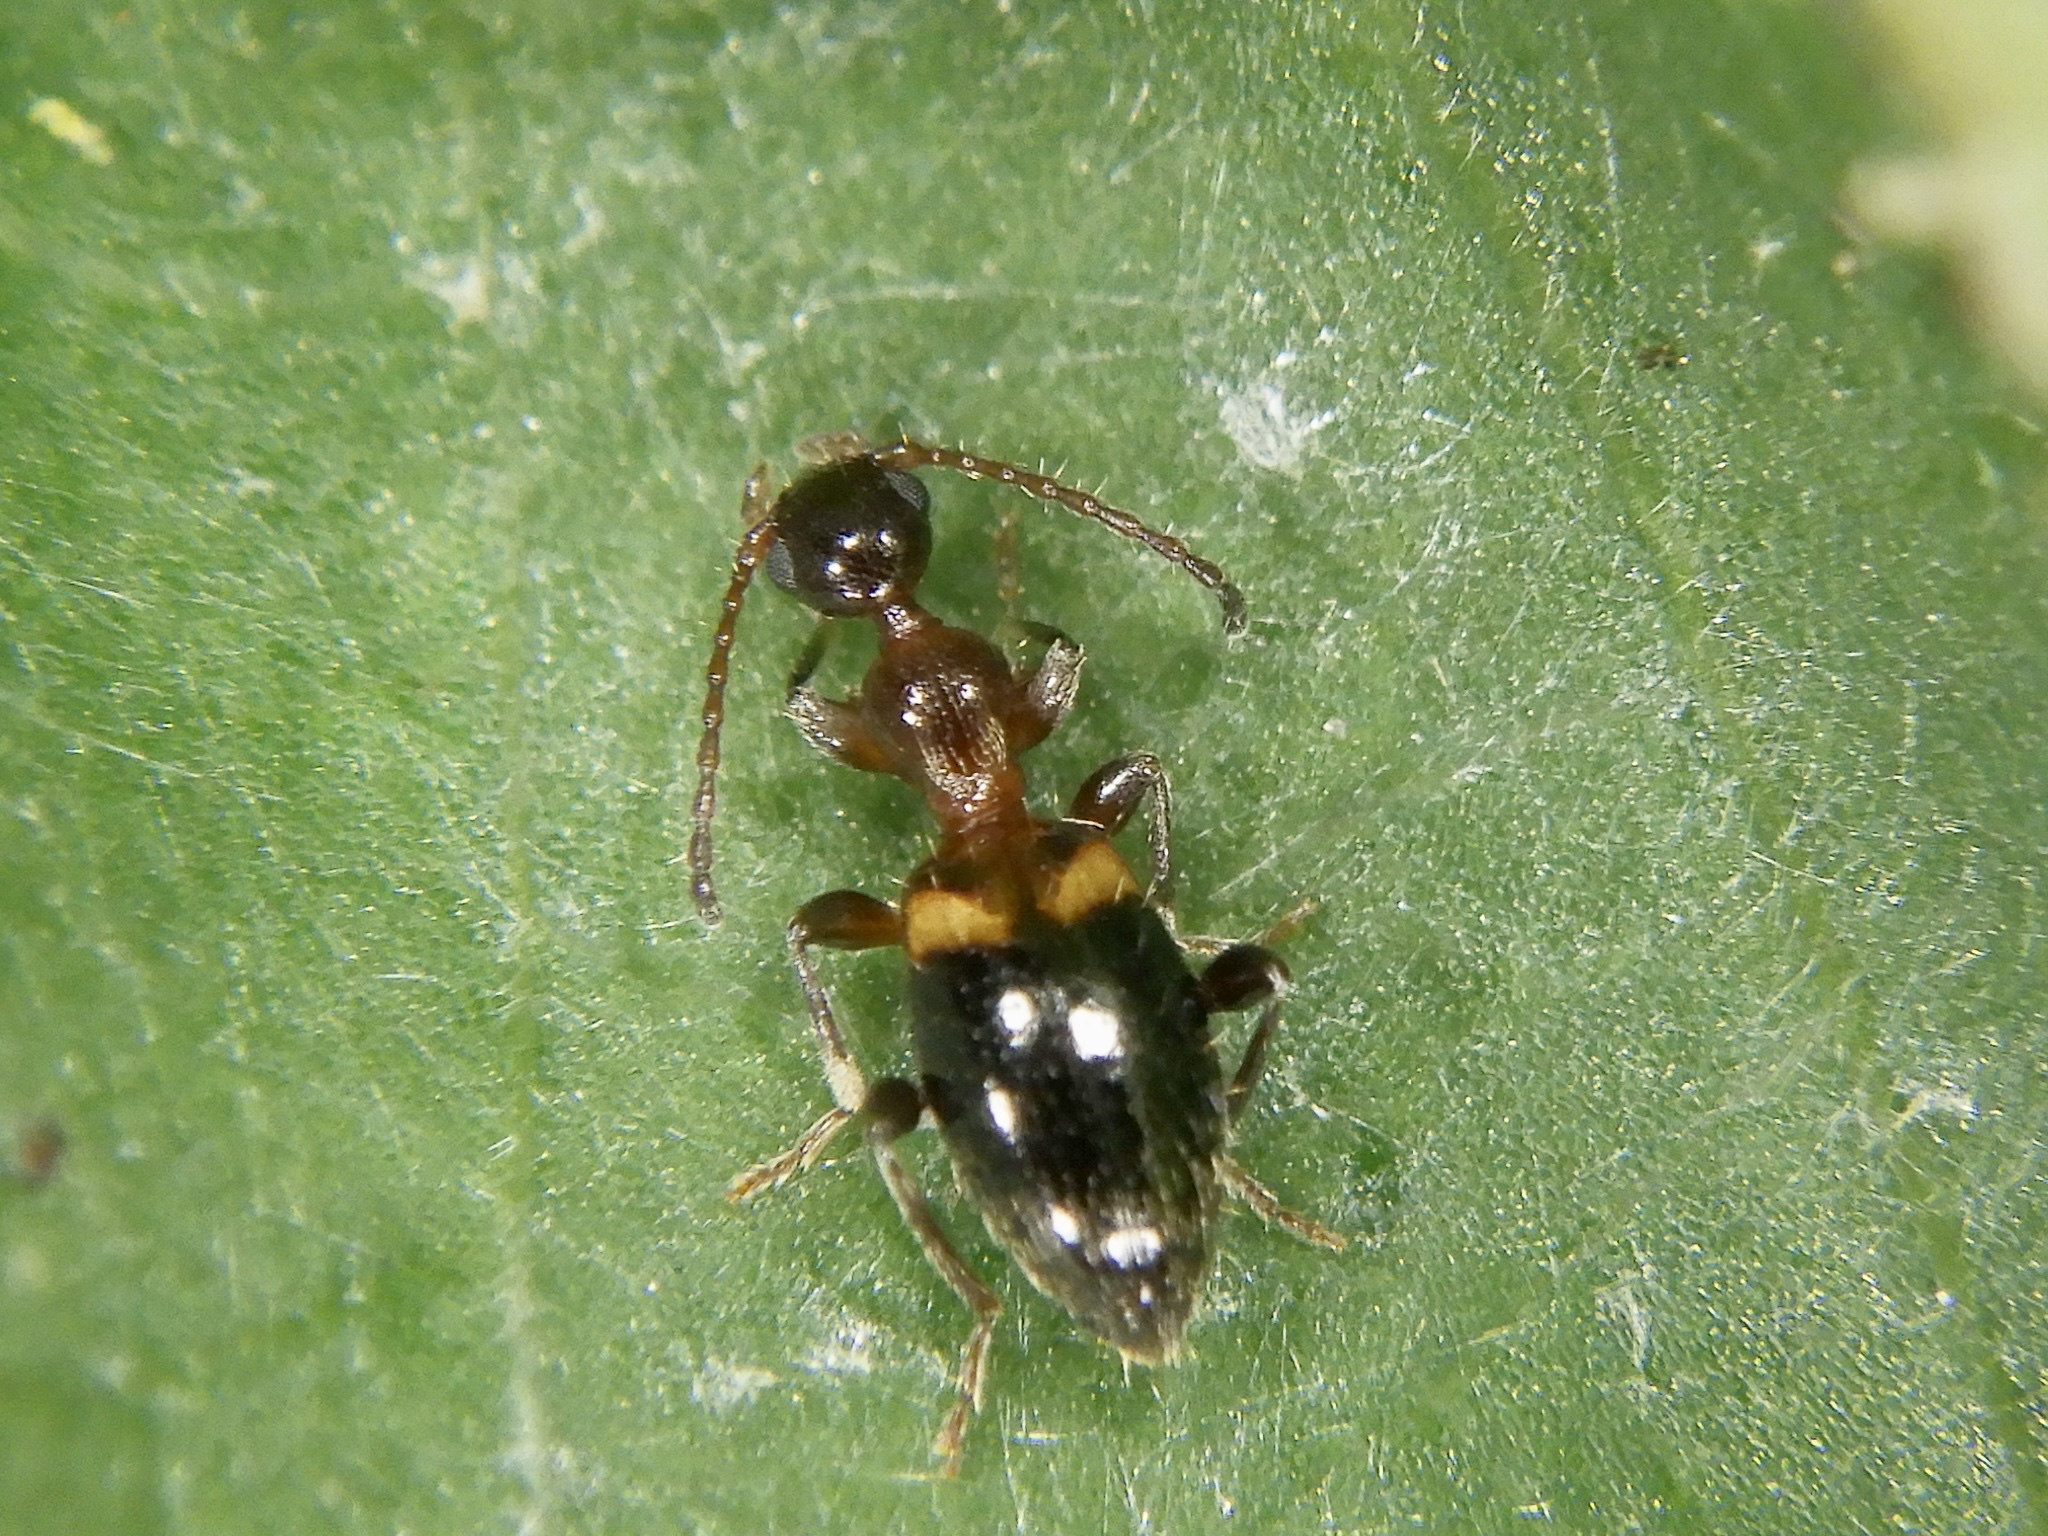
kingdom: Animalia
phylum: Arthropoda
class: Insecta
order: Coleoptera
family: Anthicidae
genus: Anthelephila
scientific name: Anthelephila bramina
